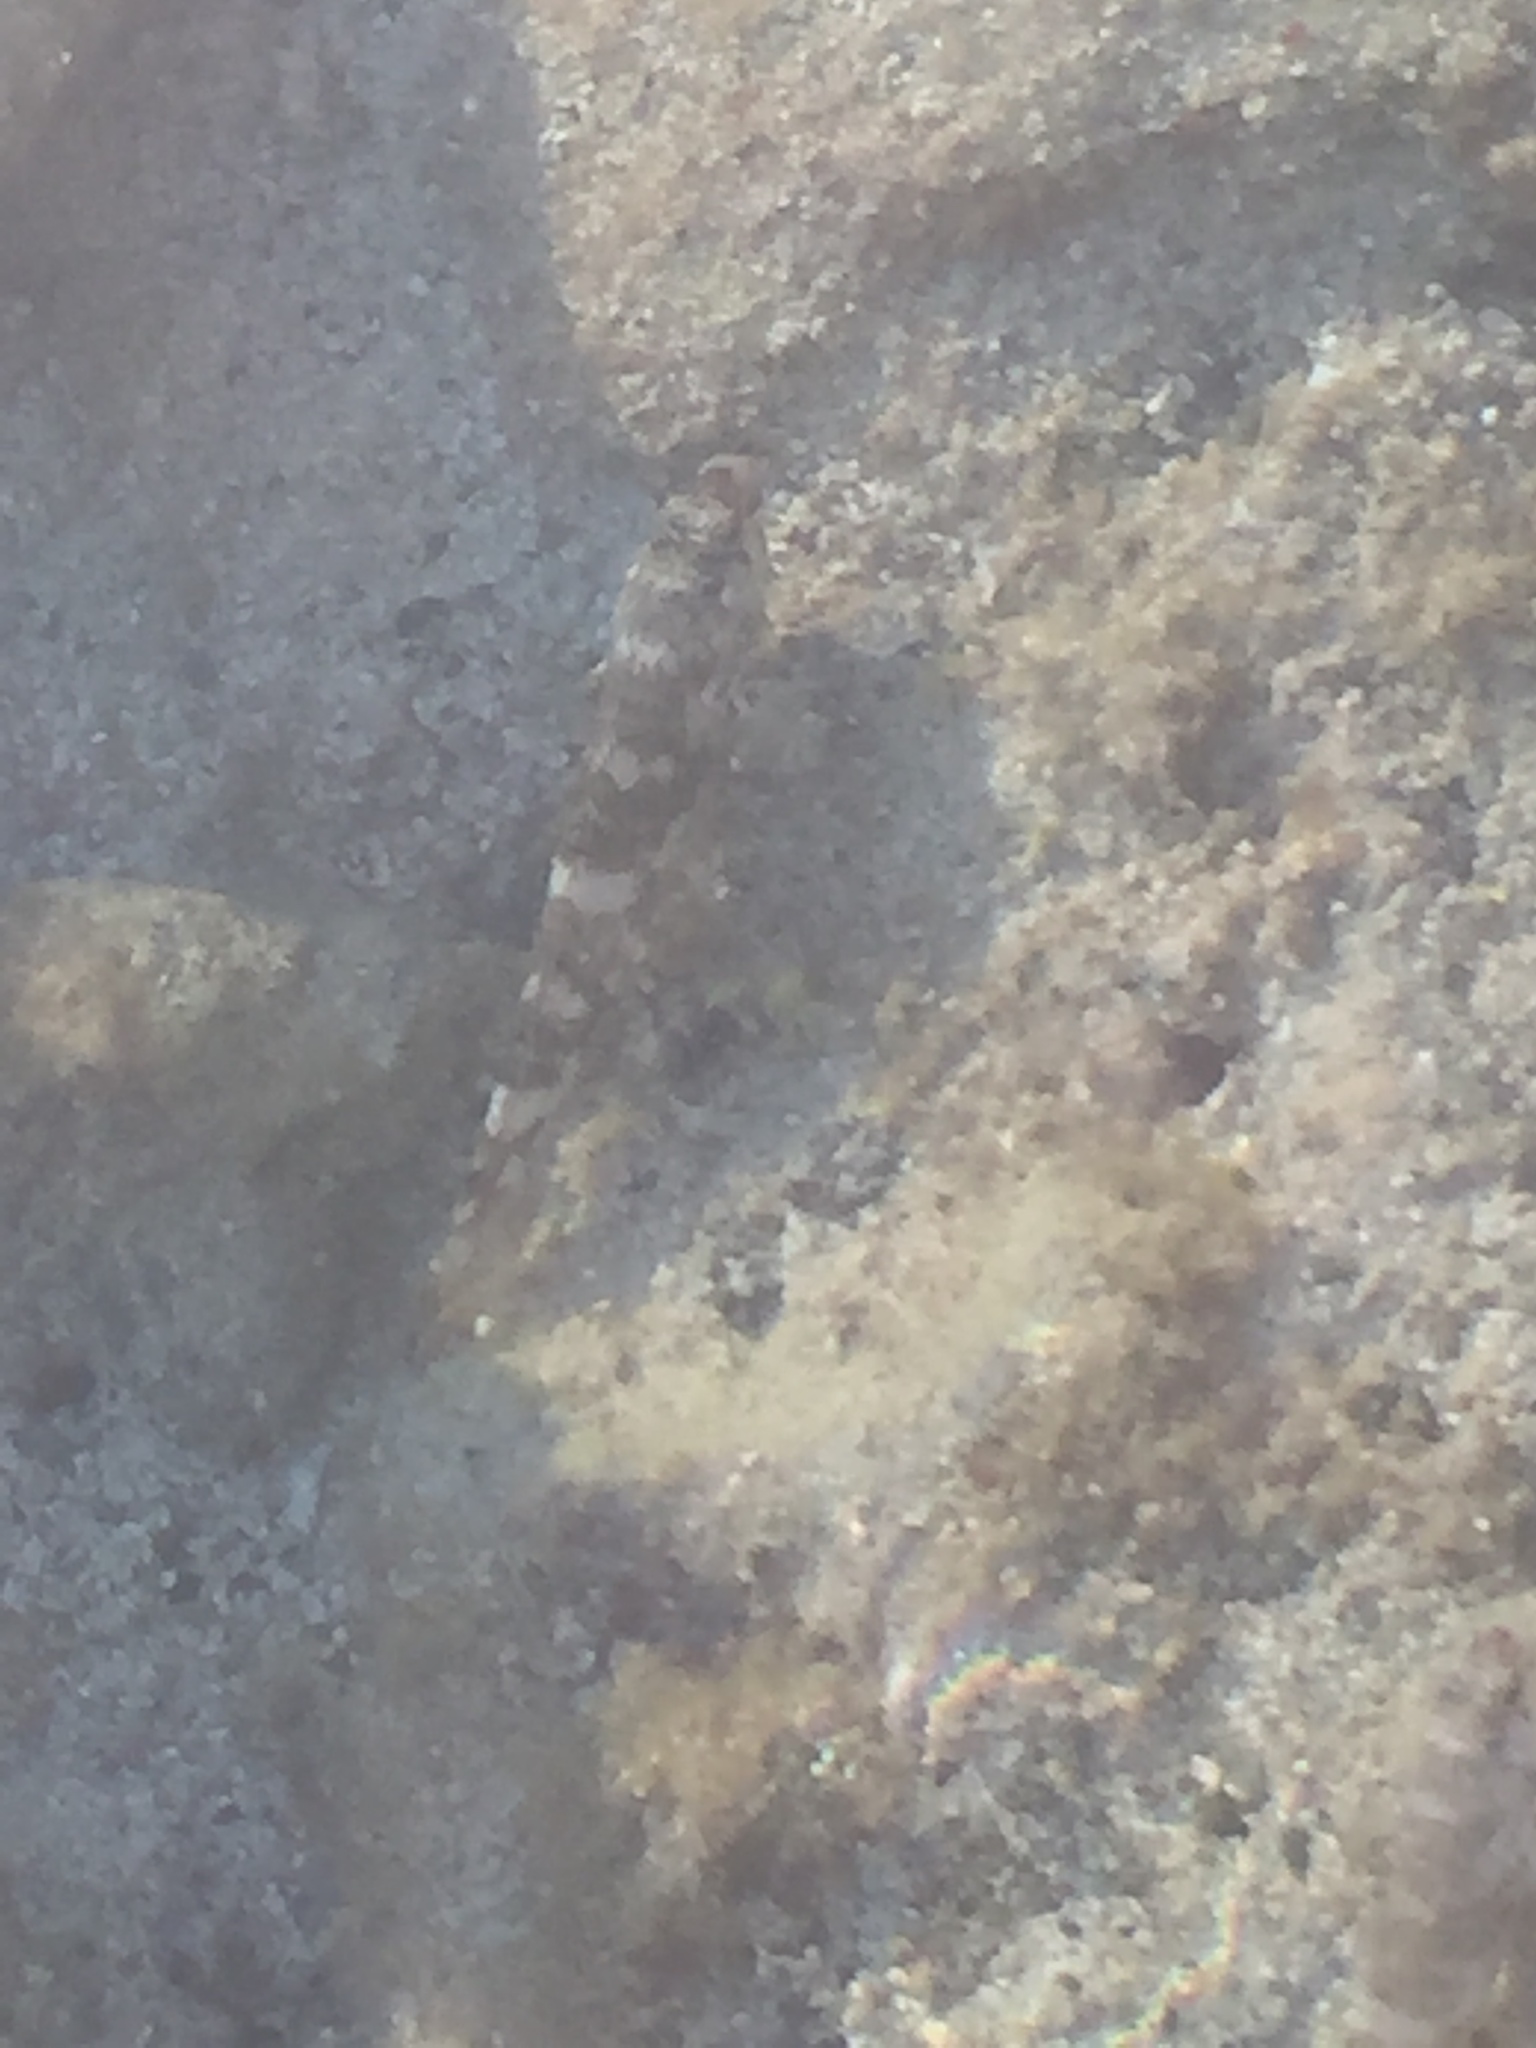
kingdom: Animalia
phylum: Chordata
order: Perciformes
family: Gobiidae
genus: Mauligobius
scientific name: Mauligobius maderensis
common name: Rock goby
